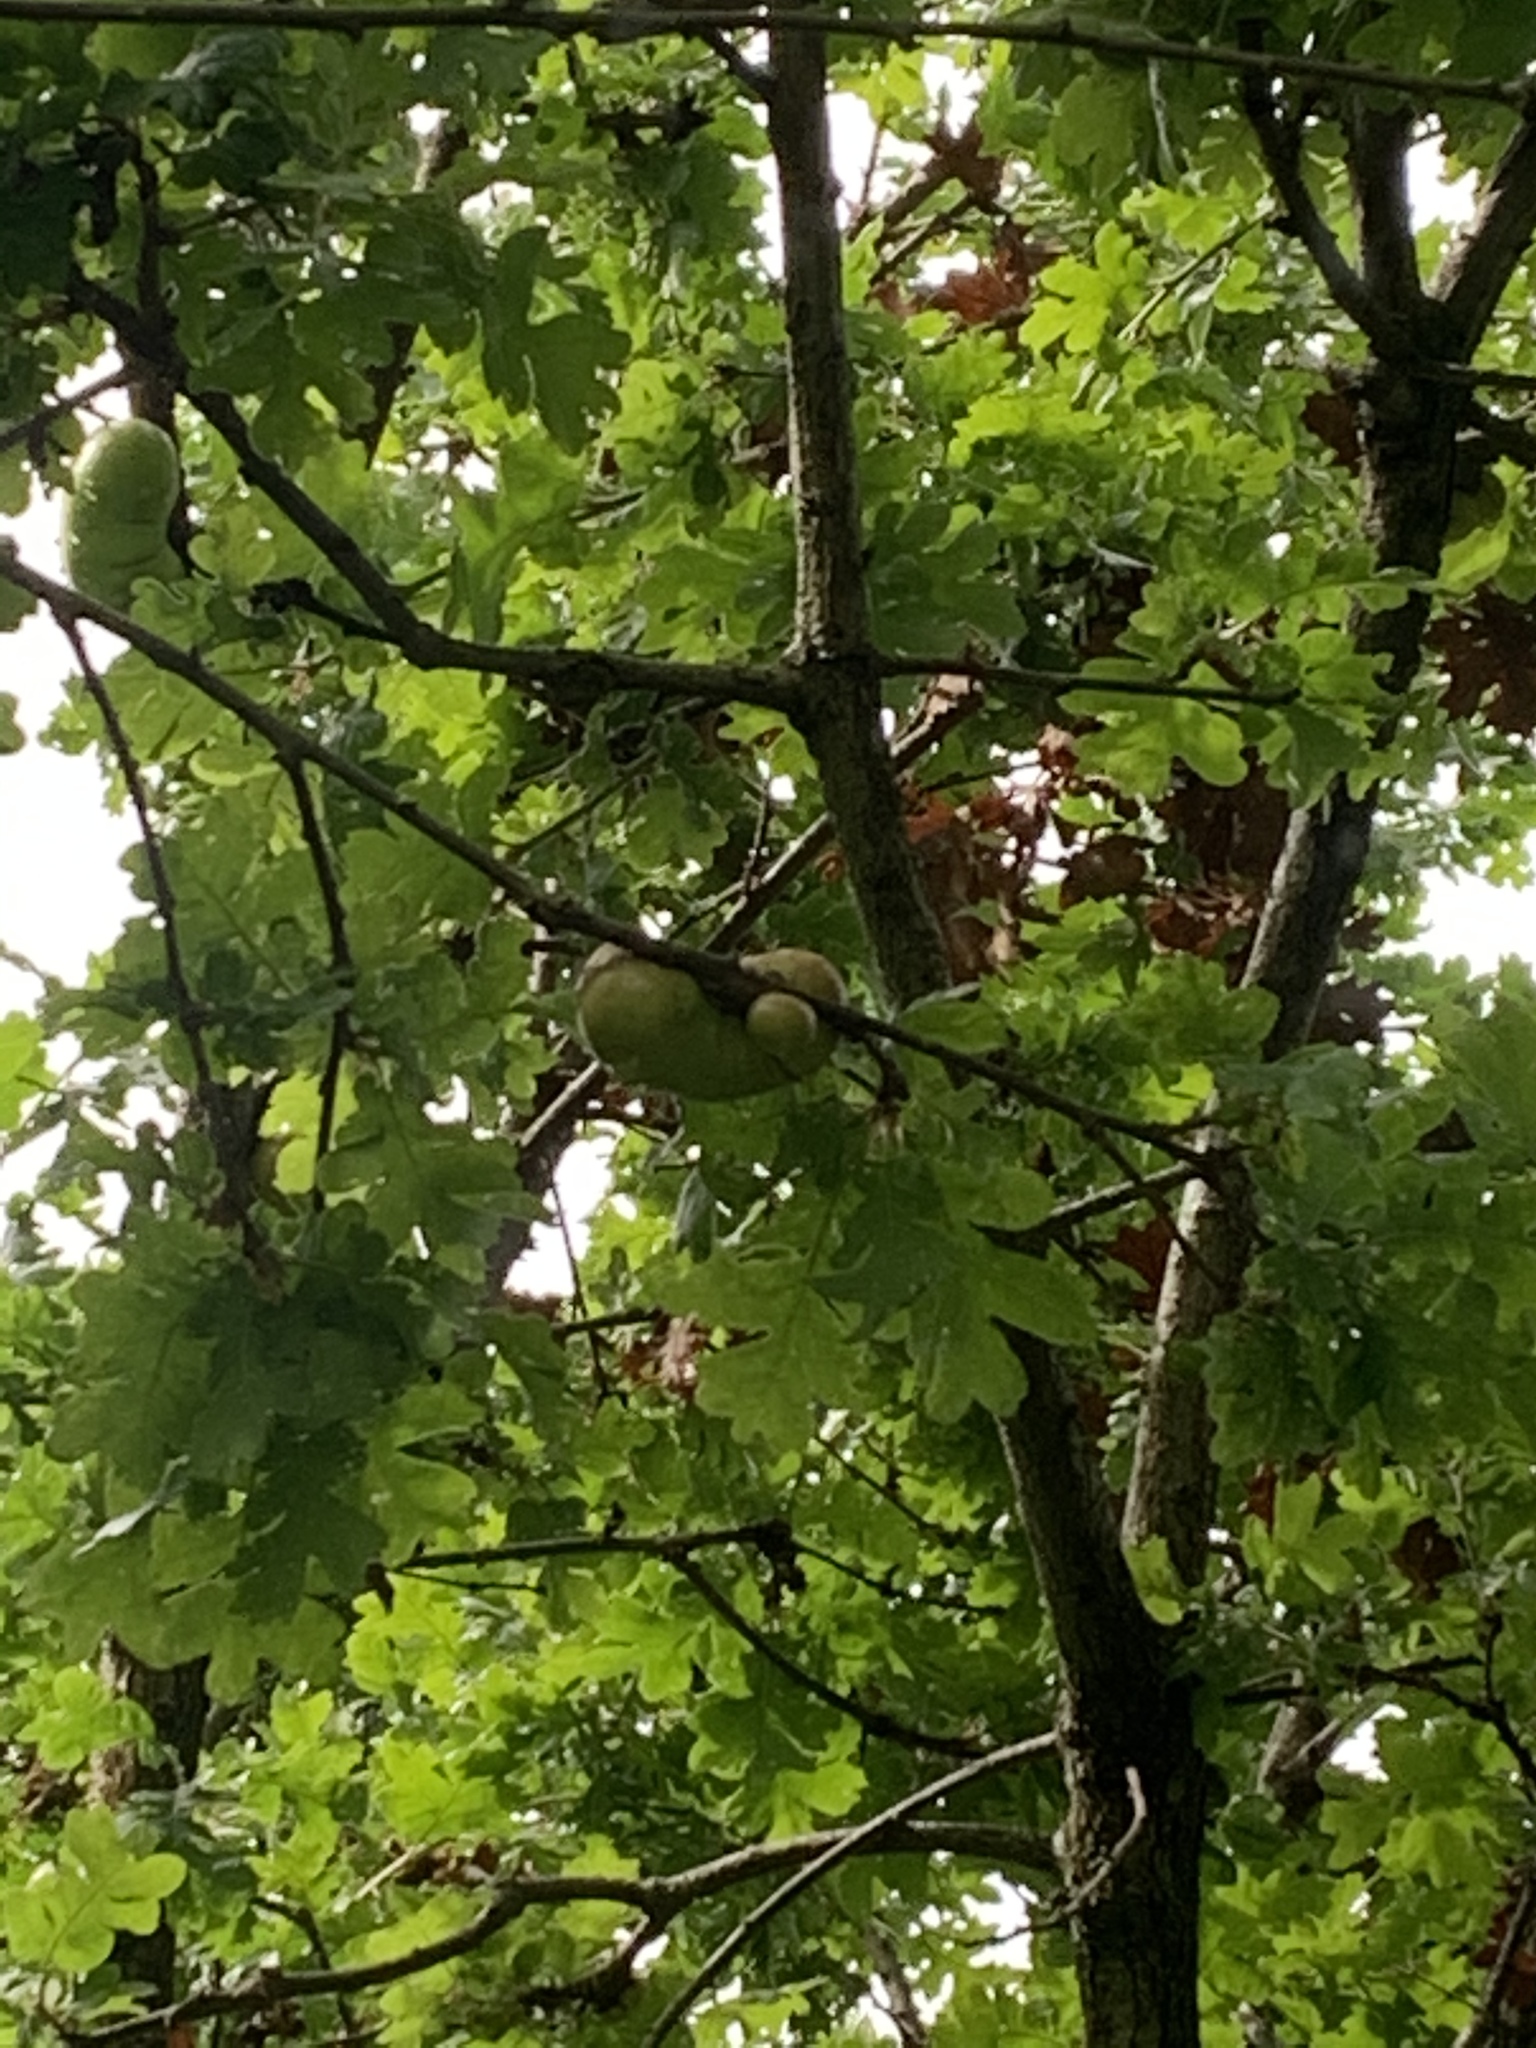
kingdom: Animalia
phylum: Arthropoda
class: Insecta
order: Hymenoptera
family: Cynipidae
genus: Andricus
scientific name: Andricus quercuscalifornicus
